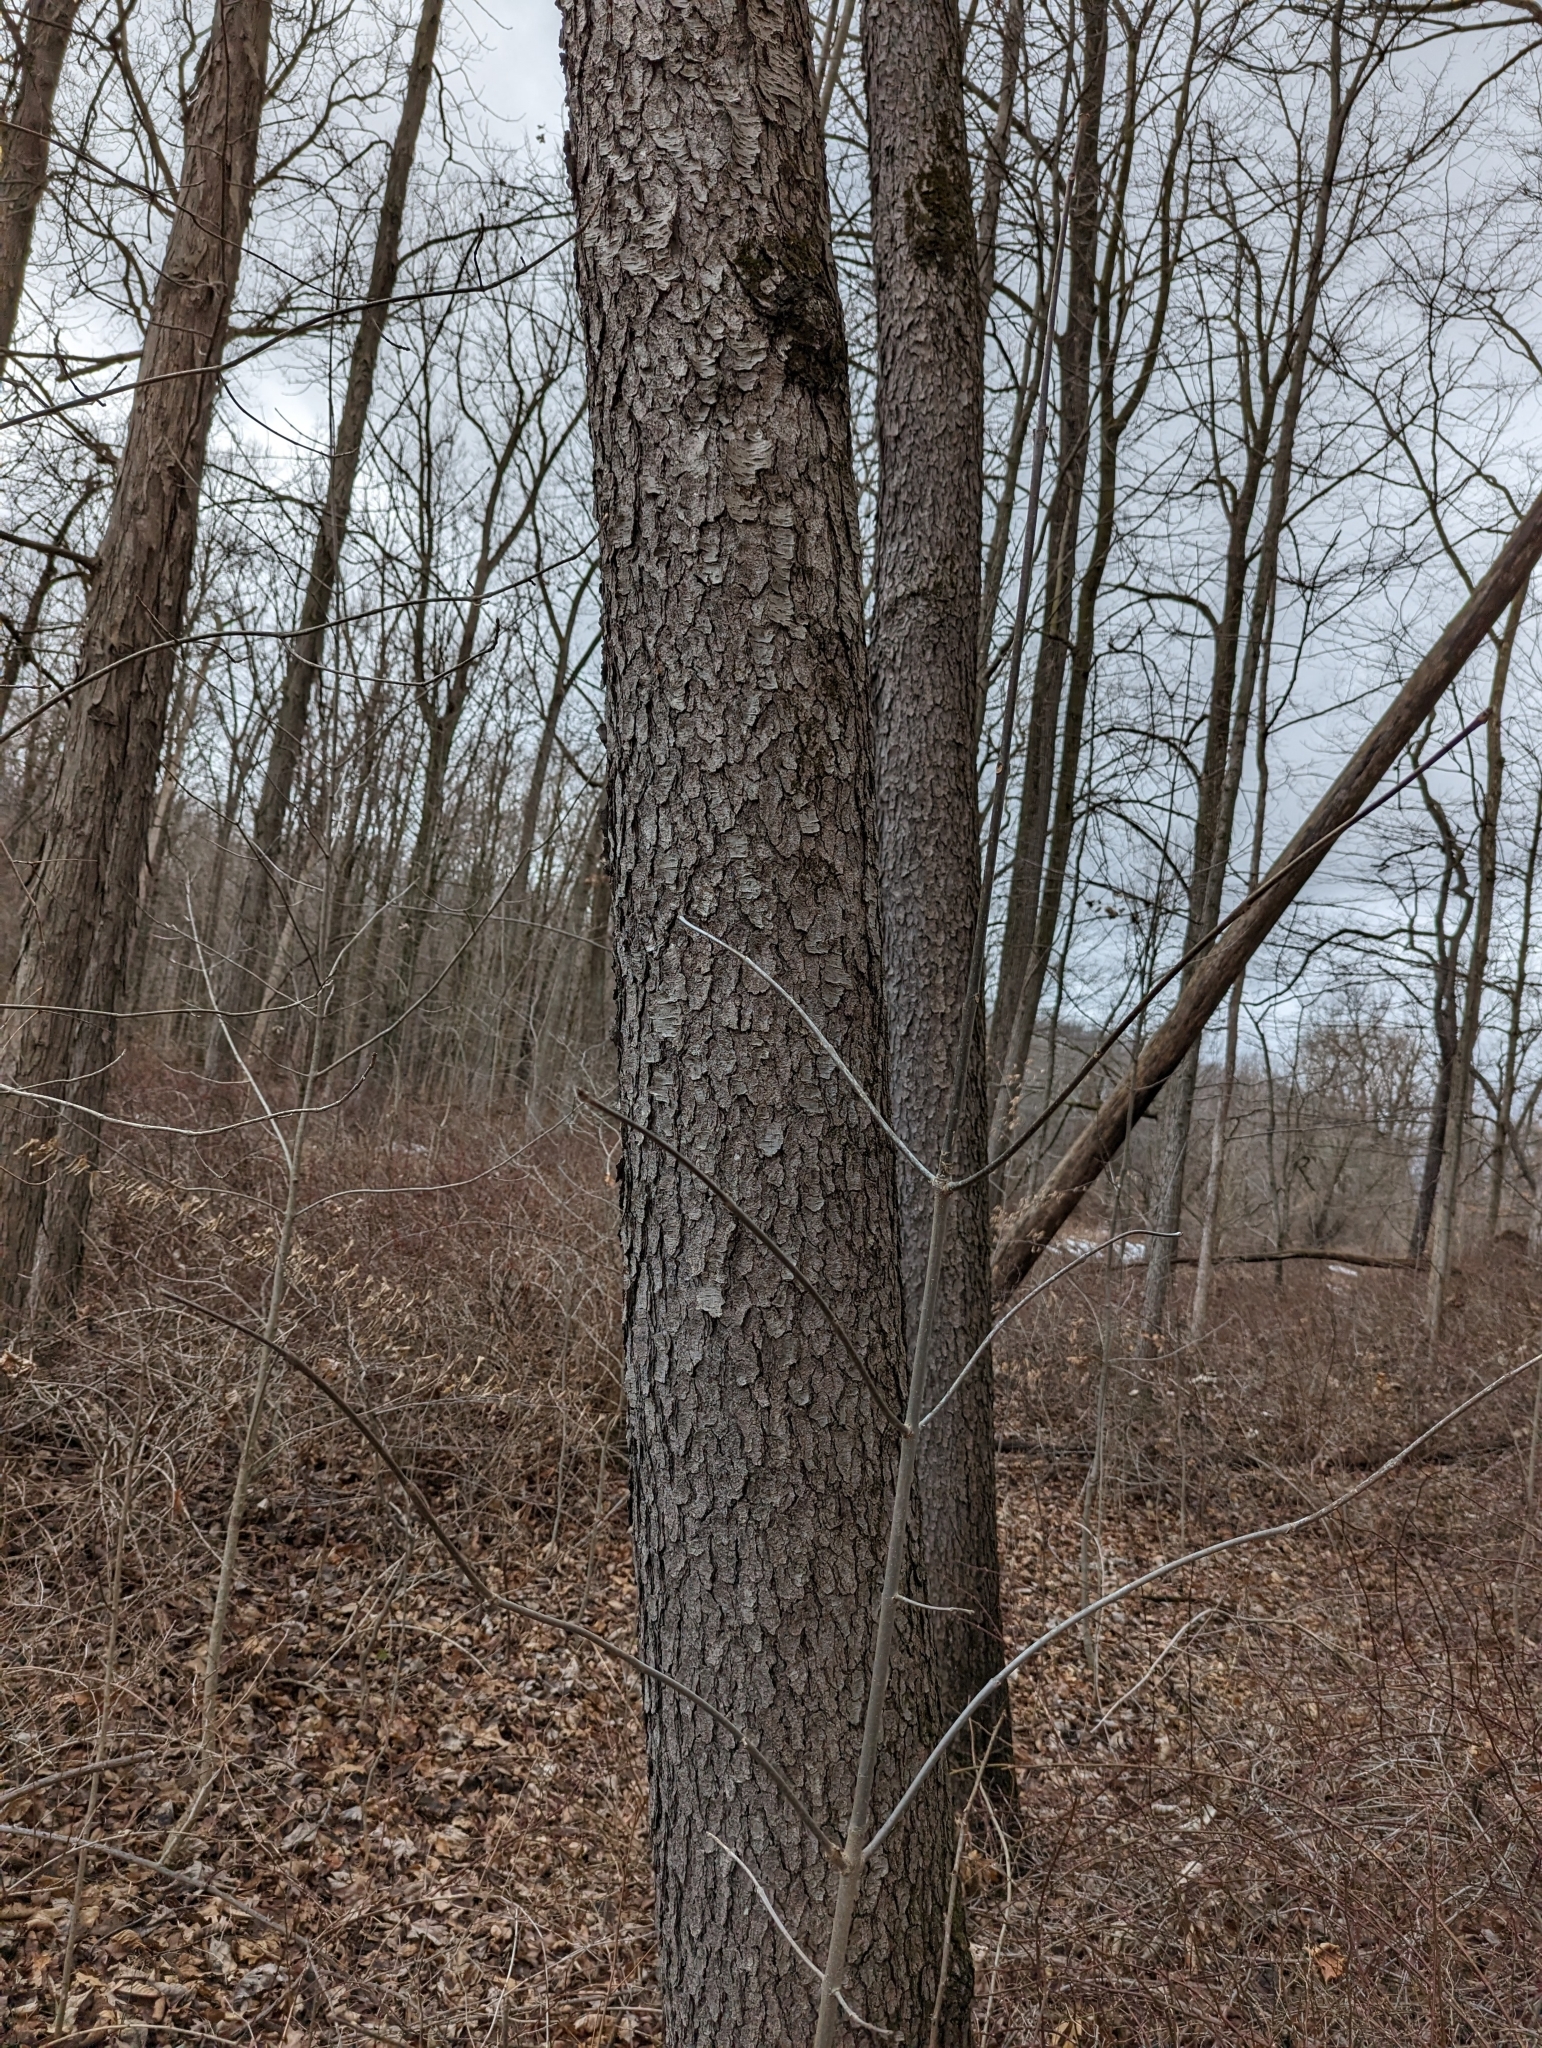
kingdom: Plantae
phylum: Tracheophyta
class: Magnoliopsida
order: Rosales
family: Rosaceae
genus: Prunus
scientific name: Prunus serotina
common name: Black cherry
